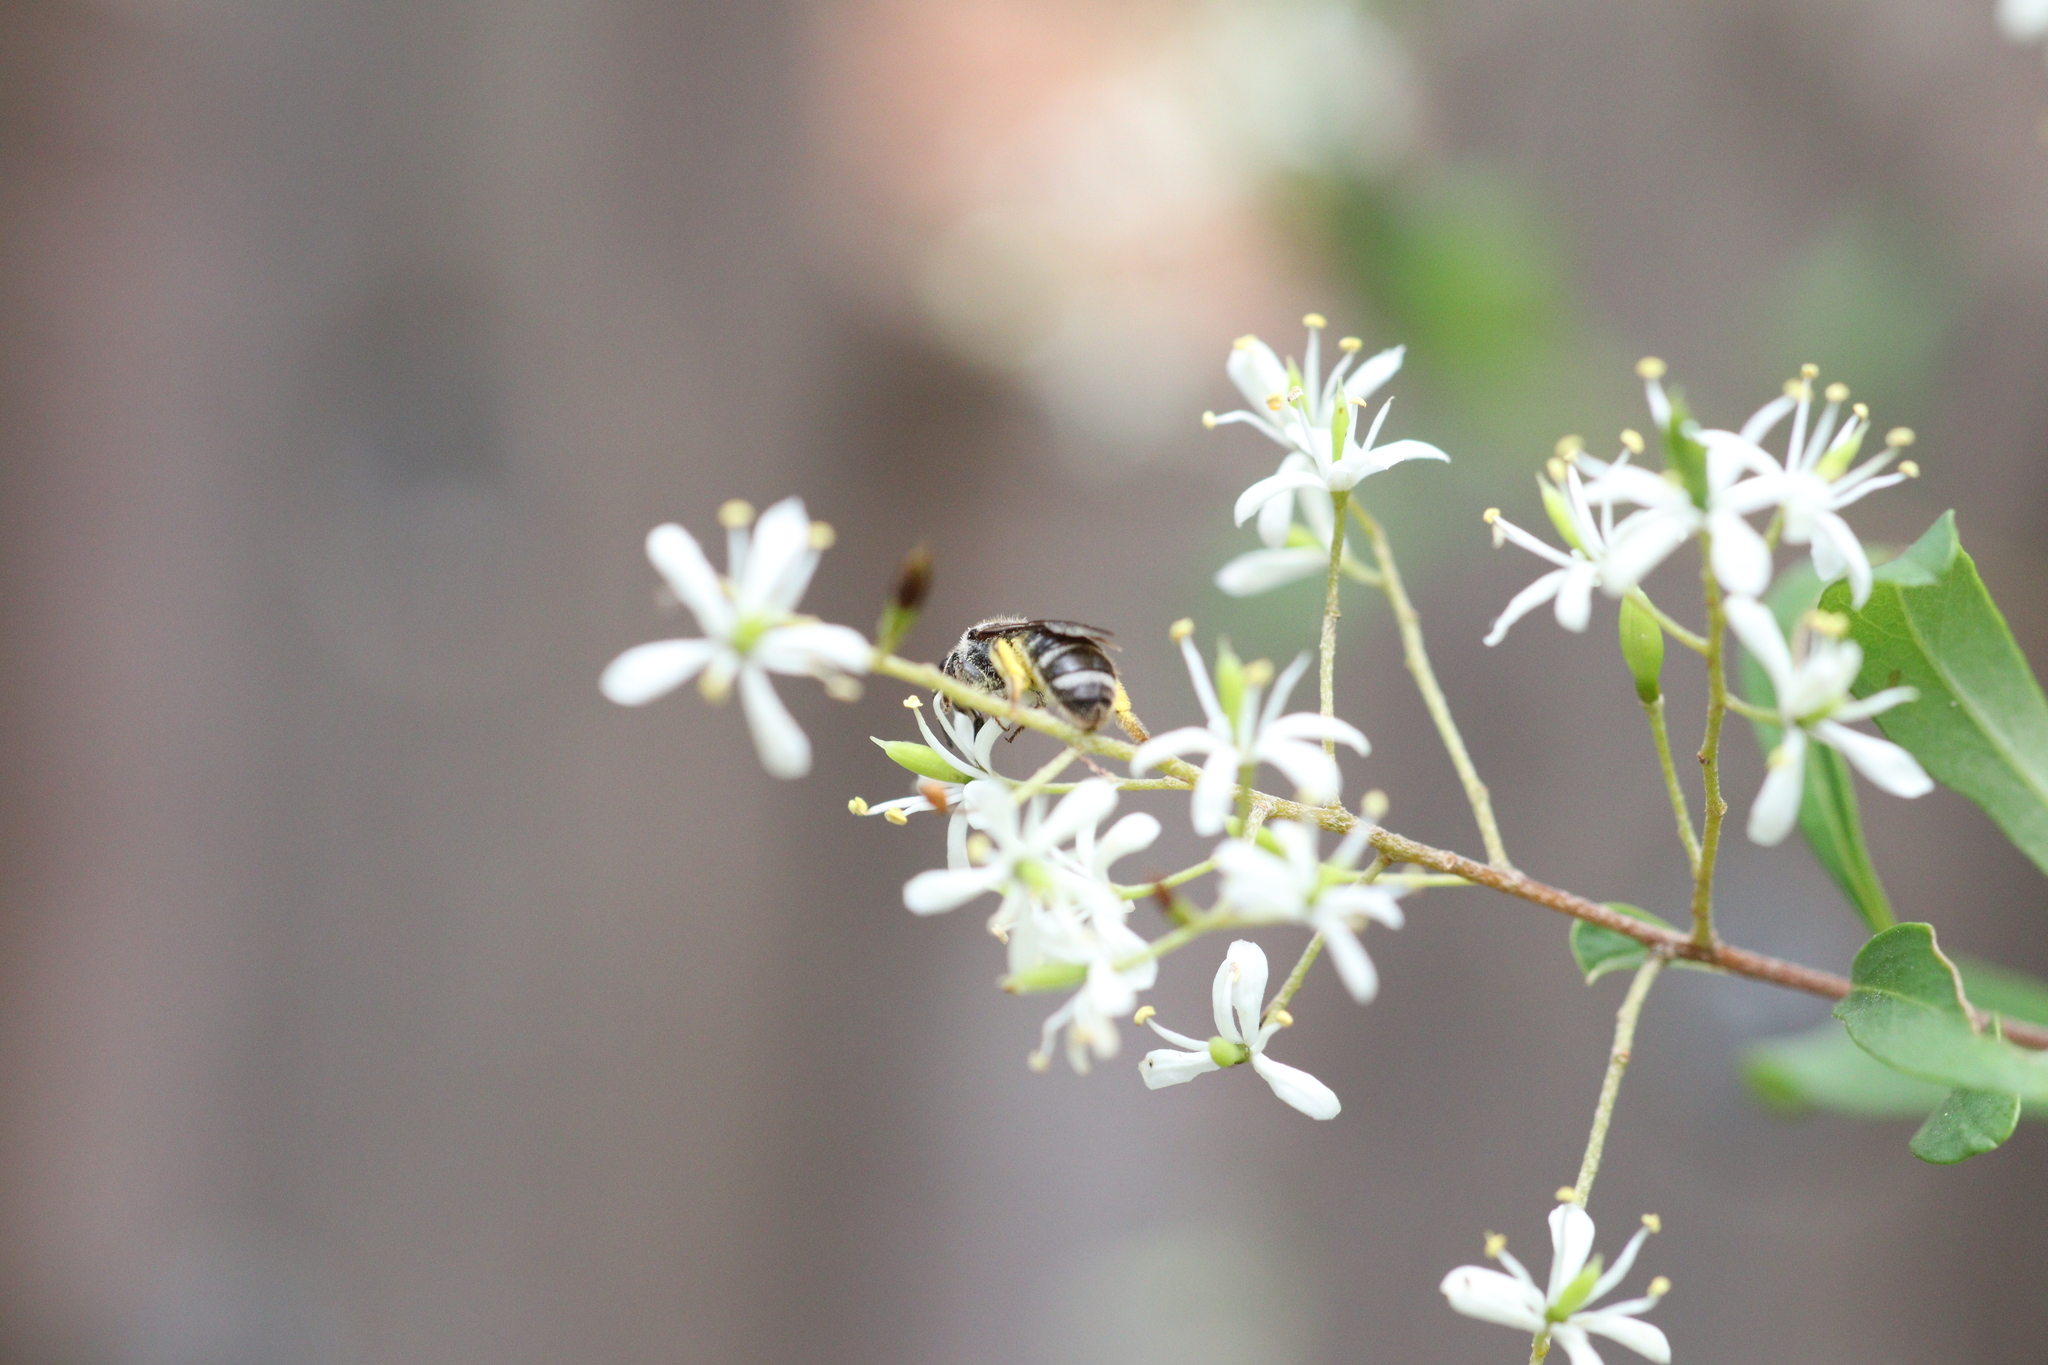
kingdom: Plantae
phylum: Tracheophyta
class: Magnoliopsida
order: Apiales
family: Pittosporaceae
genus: Bursaria
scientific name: Bursaria spinosa
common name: Australian blackthorn
